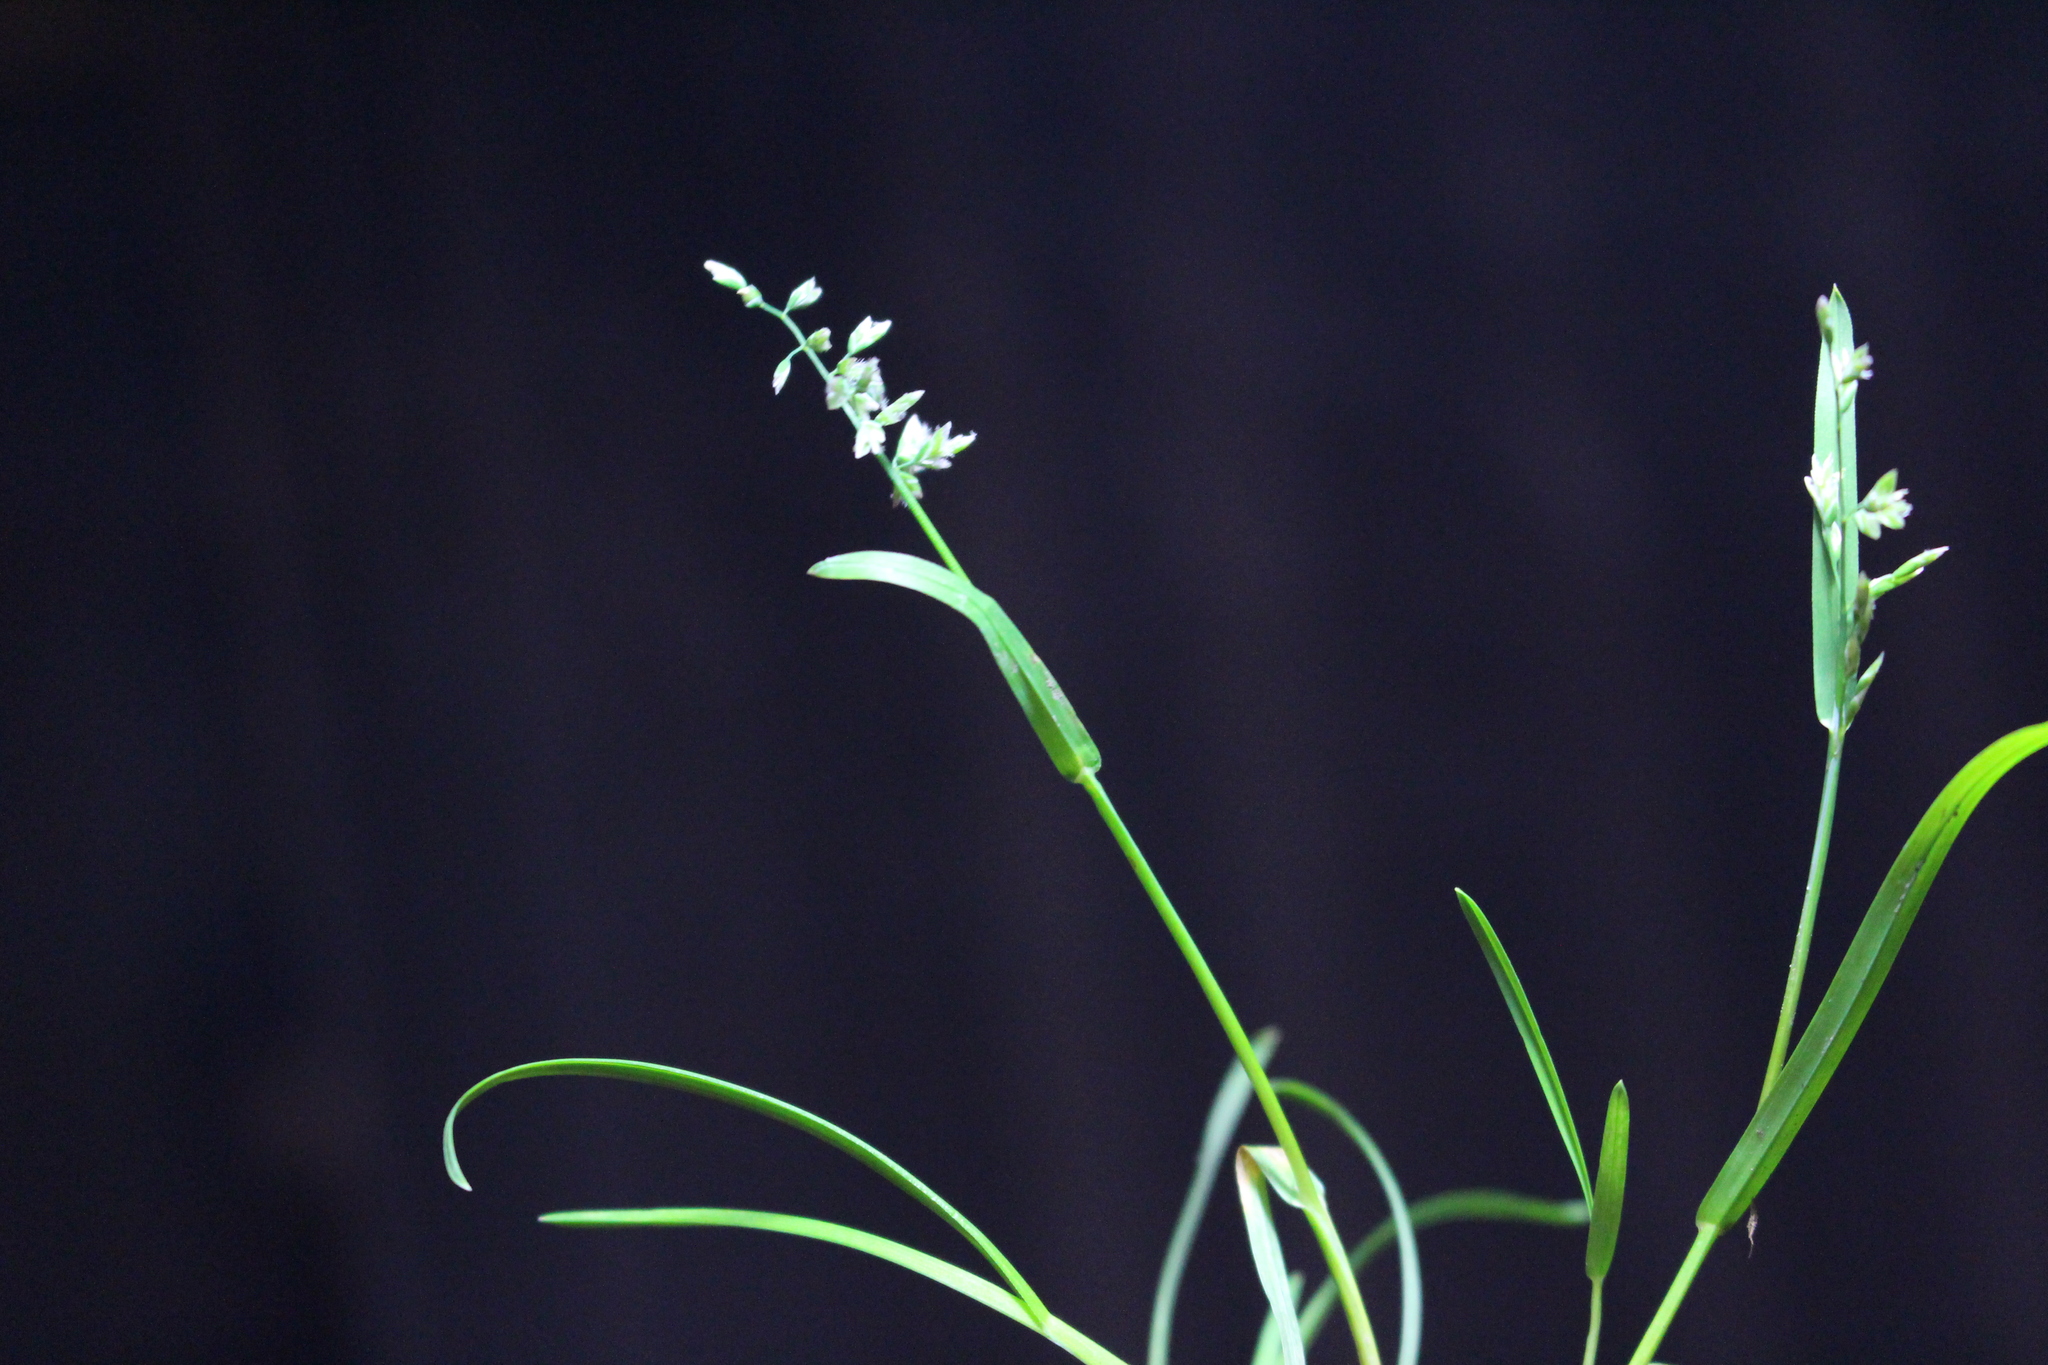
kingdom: Plantae
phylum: Tracheophyta
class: Liliopsida
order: Poales
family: Poaceae
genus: Poa
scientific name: Poa annua
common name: Annual bluegrass
